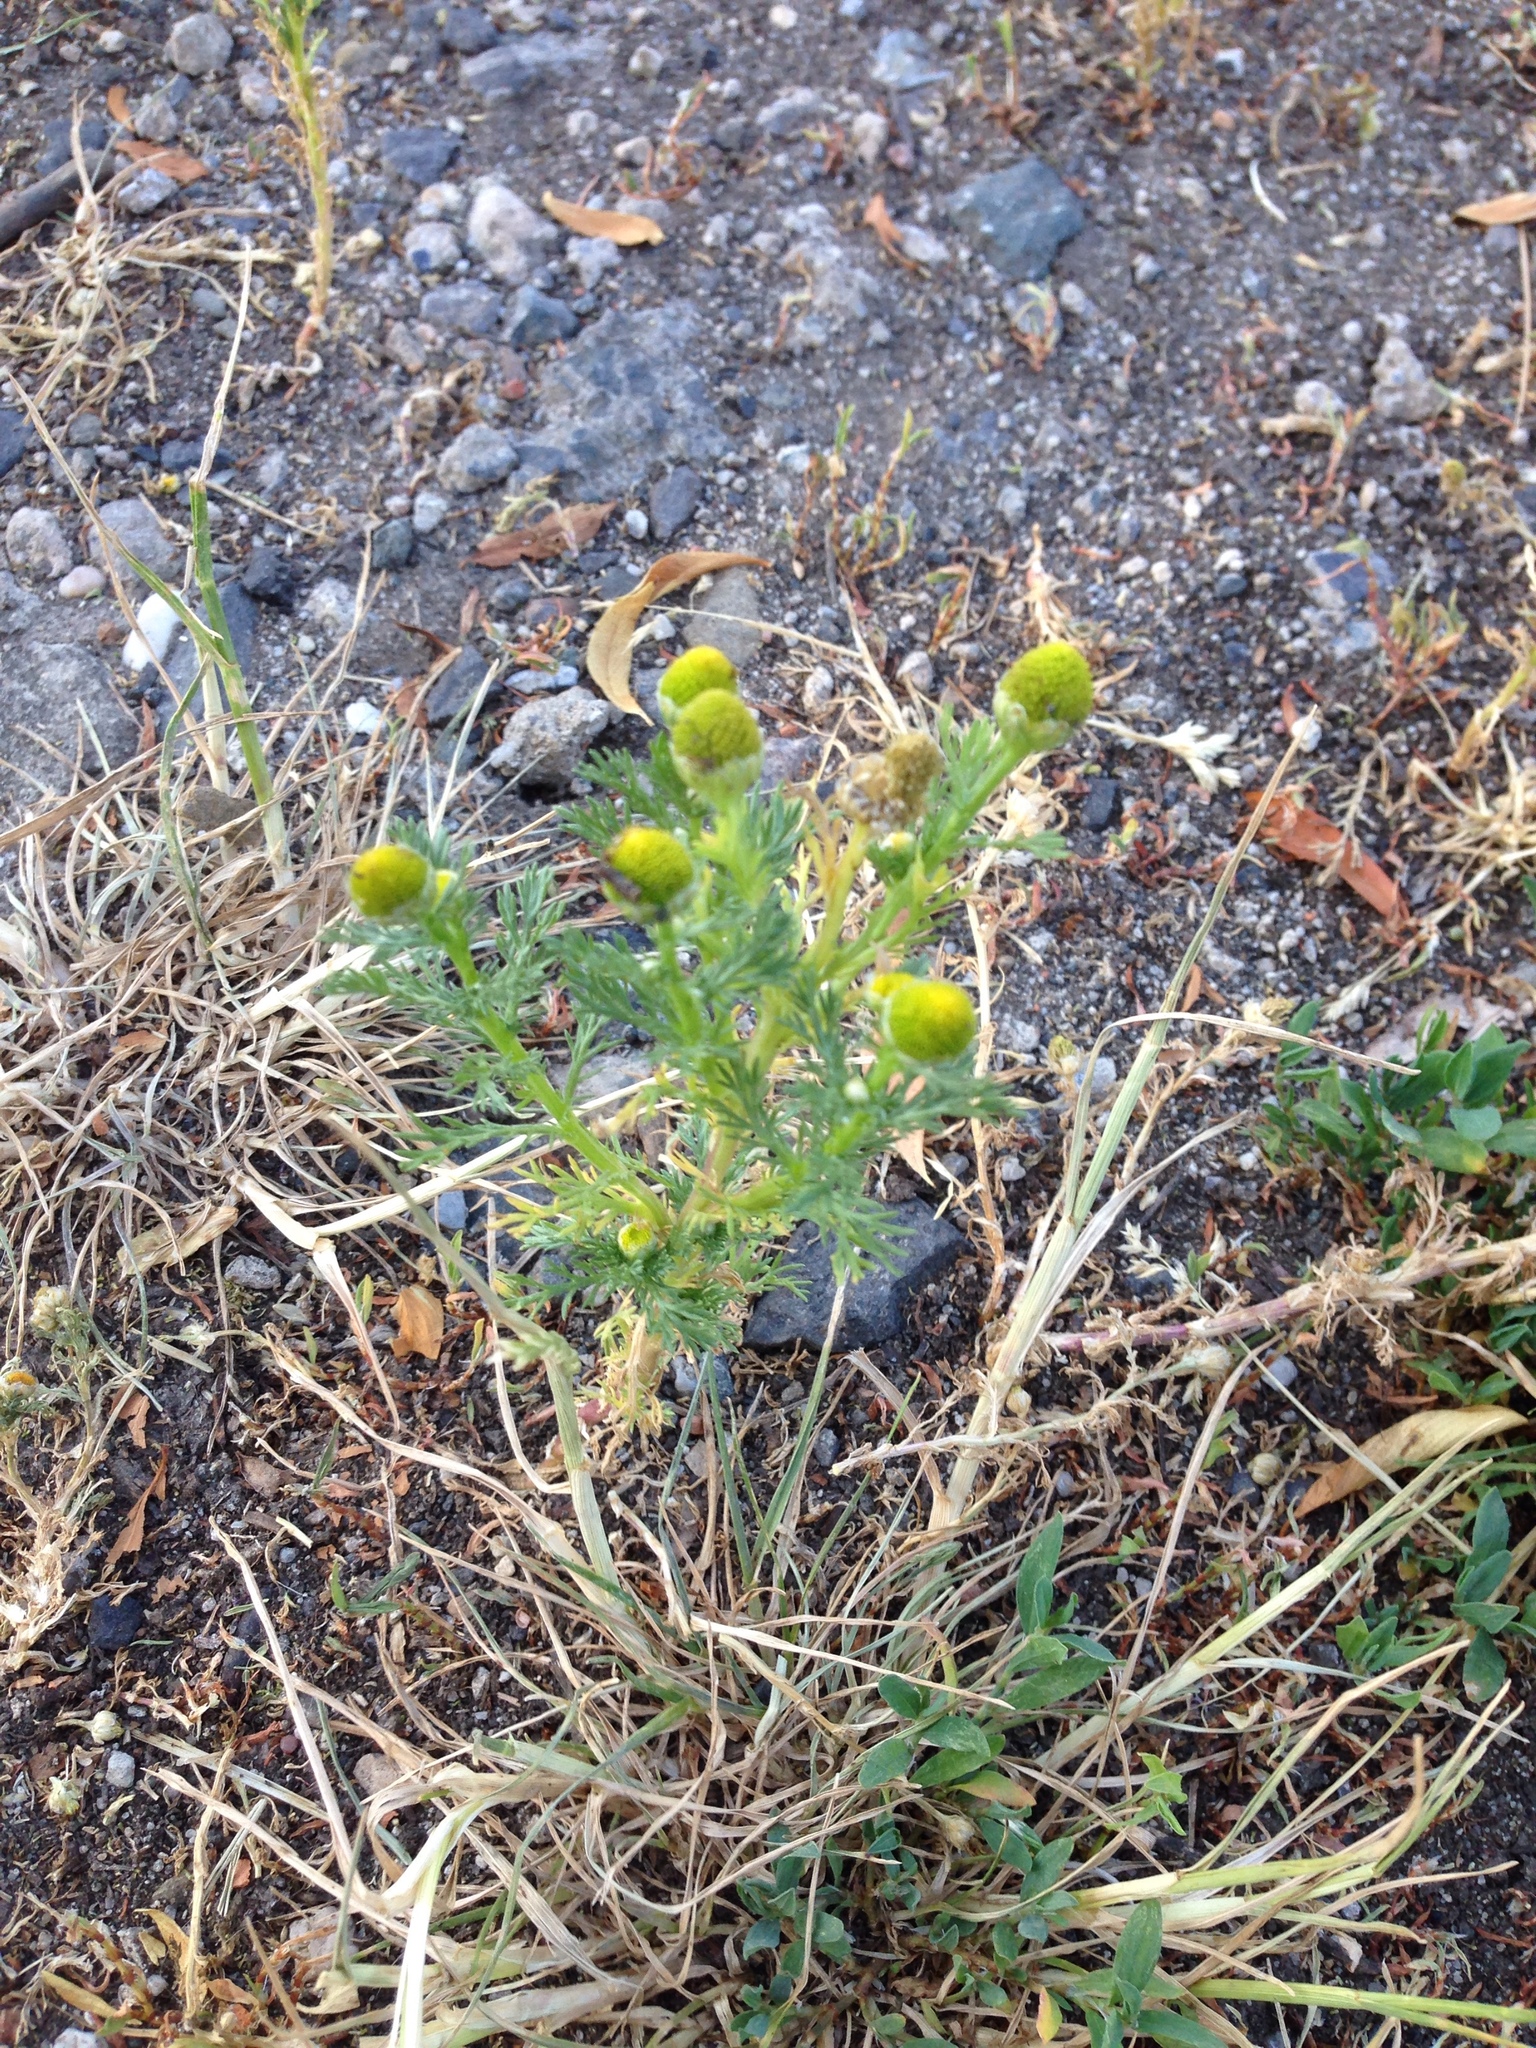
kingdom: Plantae
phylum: Tracheophyta
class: Magnoliopsida
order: Asterales
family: Asteraceae
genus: Matricaria
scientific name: Matricaria discoidea
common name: Disc mayweed
